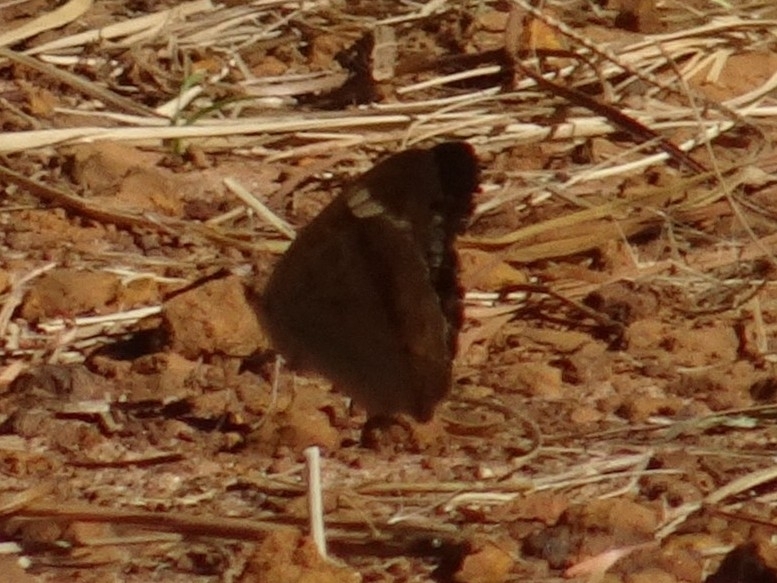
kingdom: Animalia
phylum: Arthropoda
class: Insecta
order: Lepidoptera
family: Nymphalidae
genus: Junonia
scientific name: Junonia coenia
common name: Common buckeye
